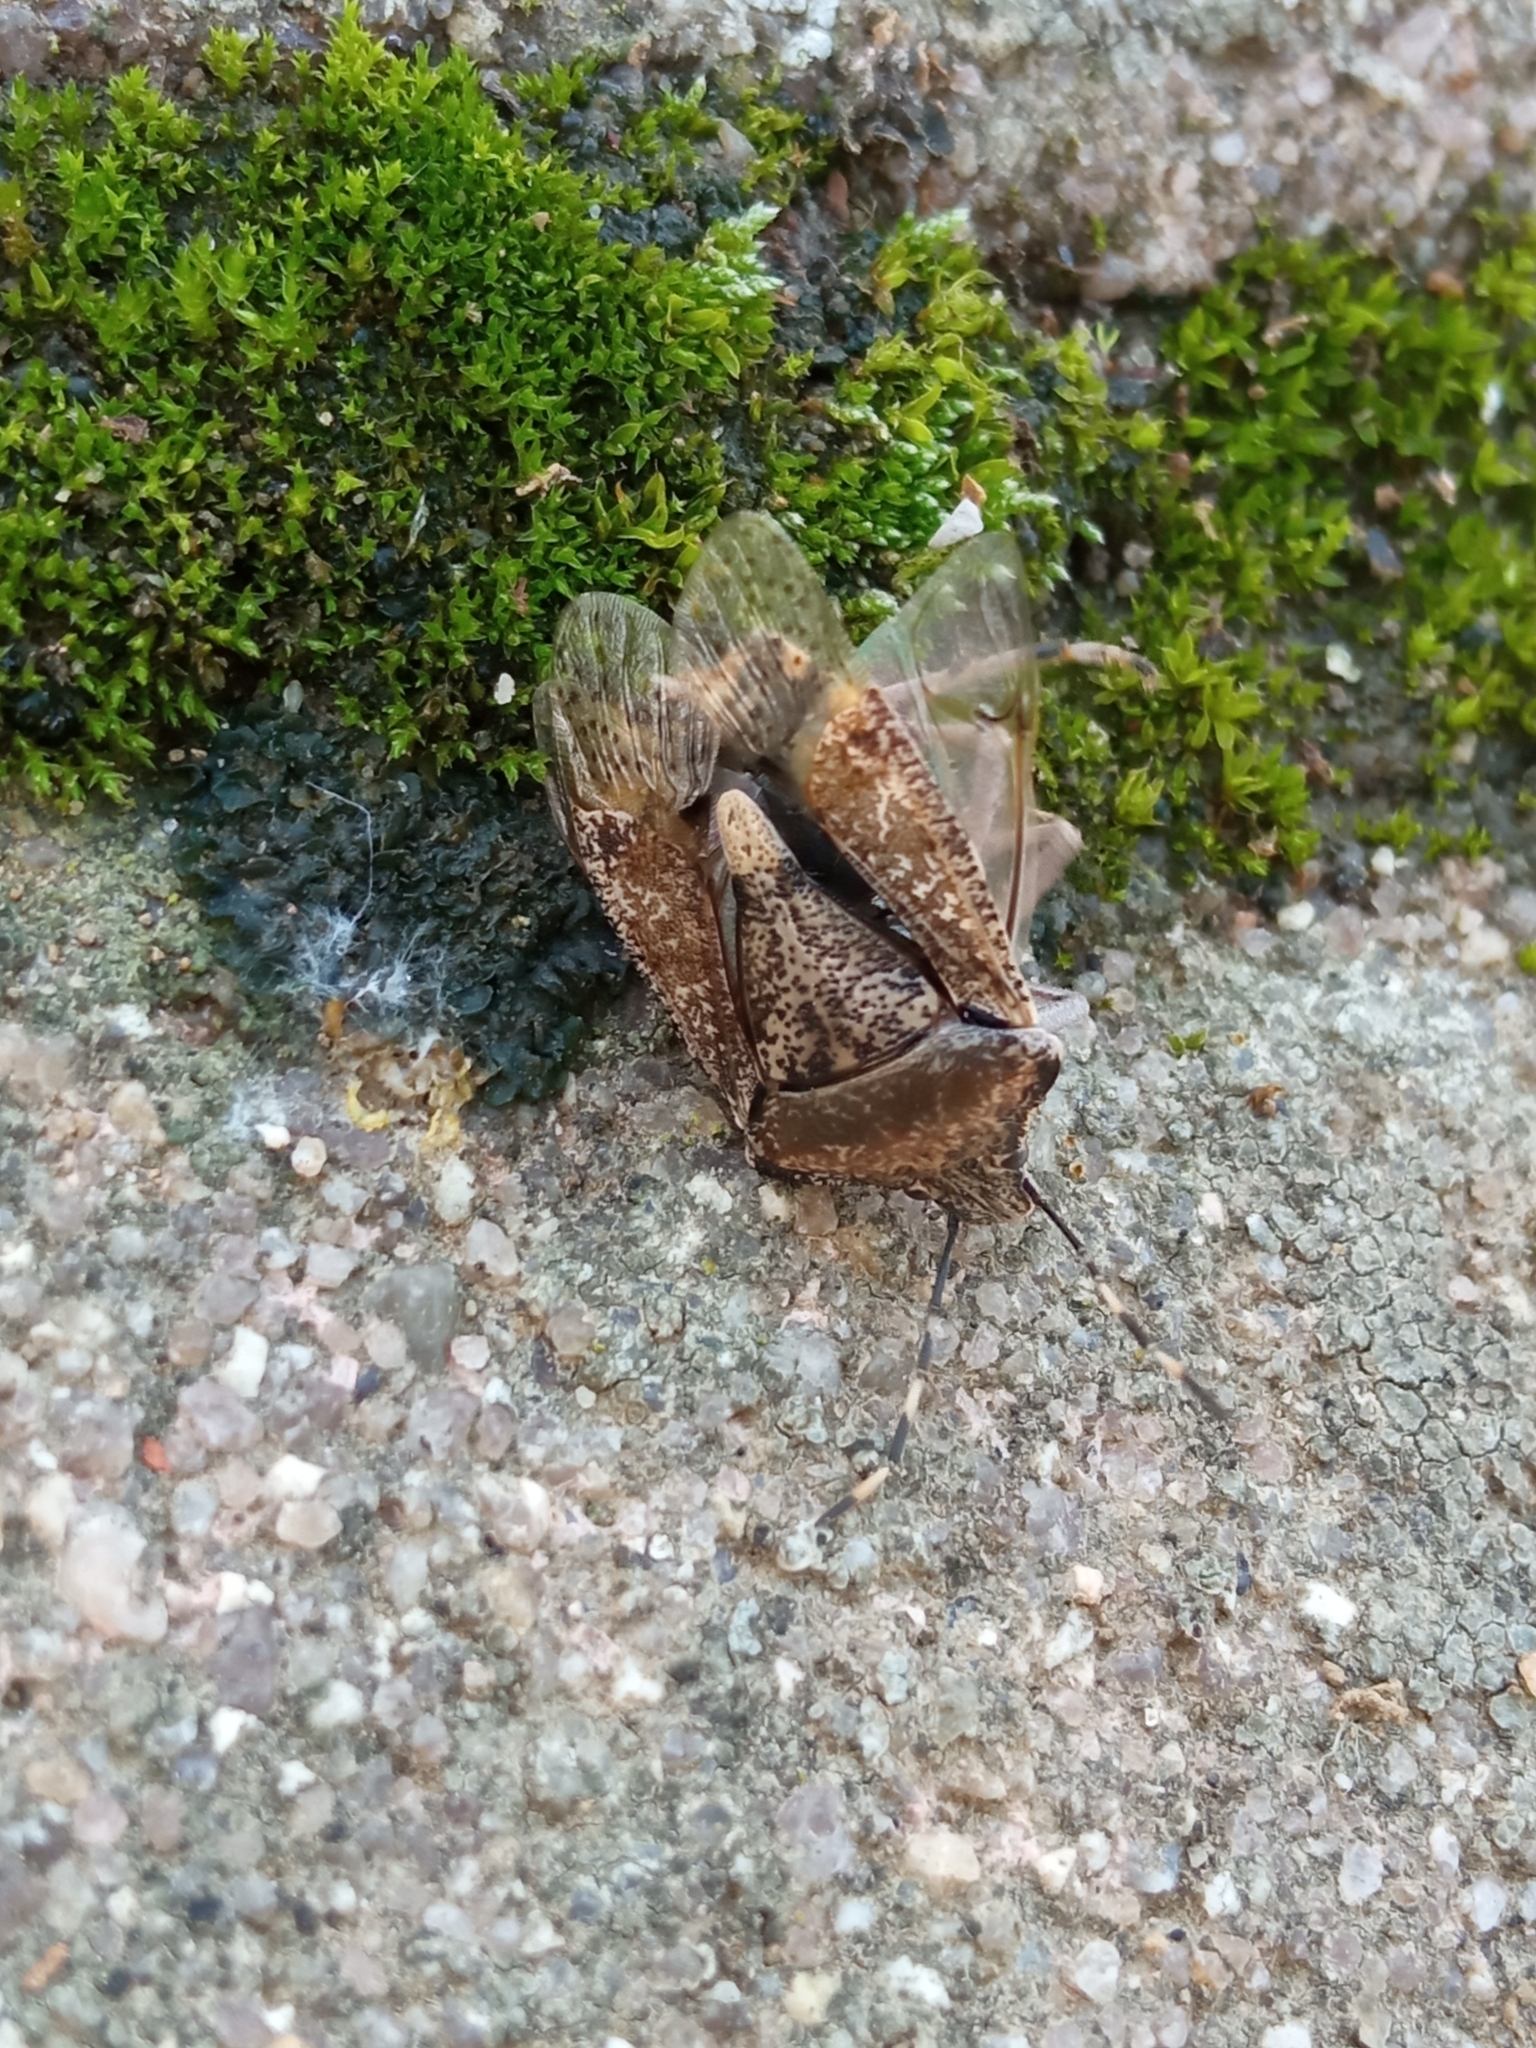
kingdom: Animalia
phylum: Arthropoda
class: Insecta
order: Hemiptera
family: Pentatomidae
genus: Rhaphigaster
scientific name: Rhaphigaster nebulosa
